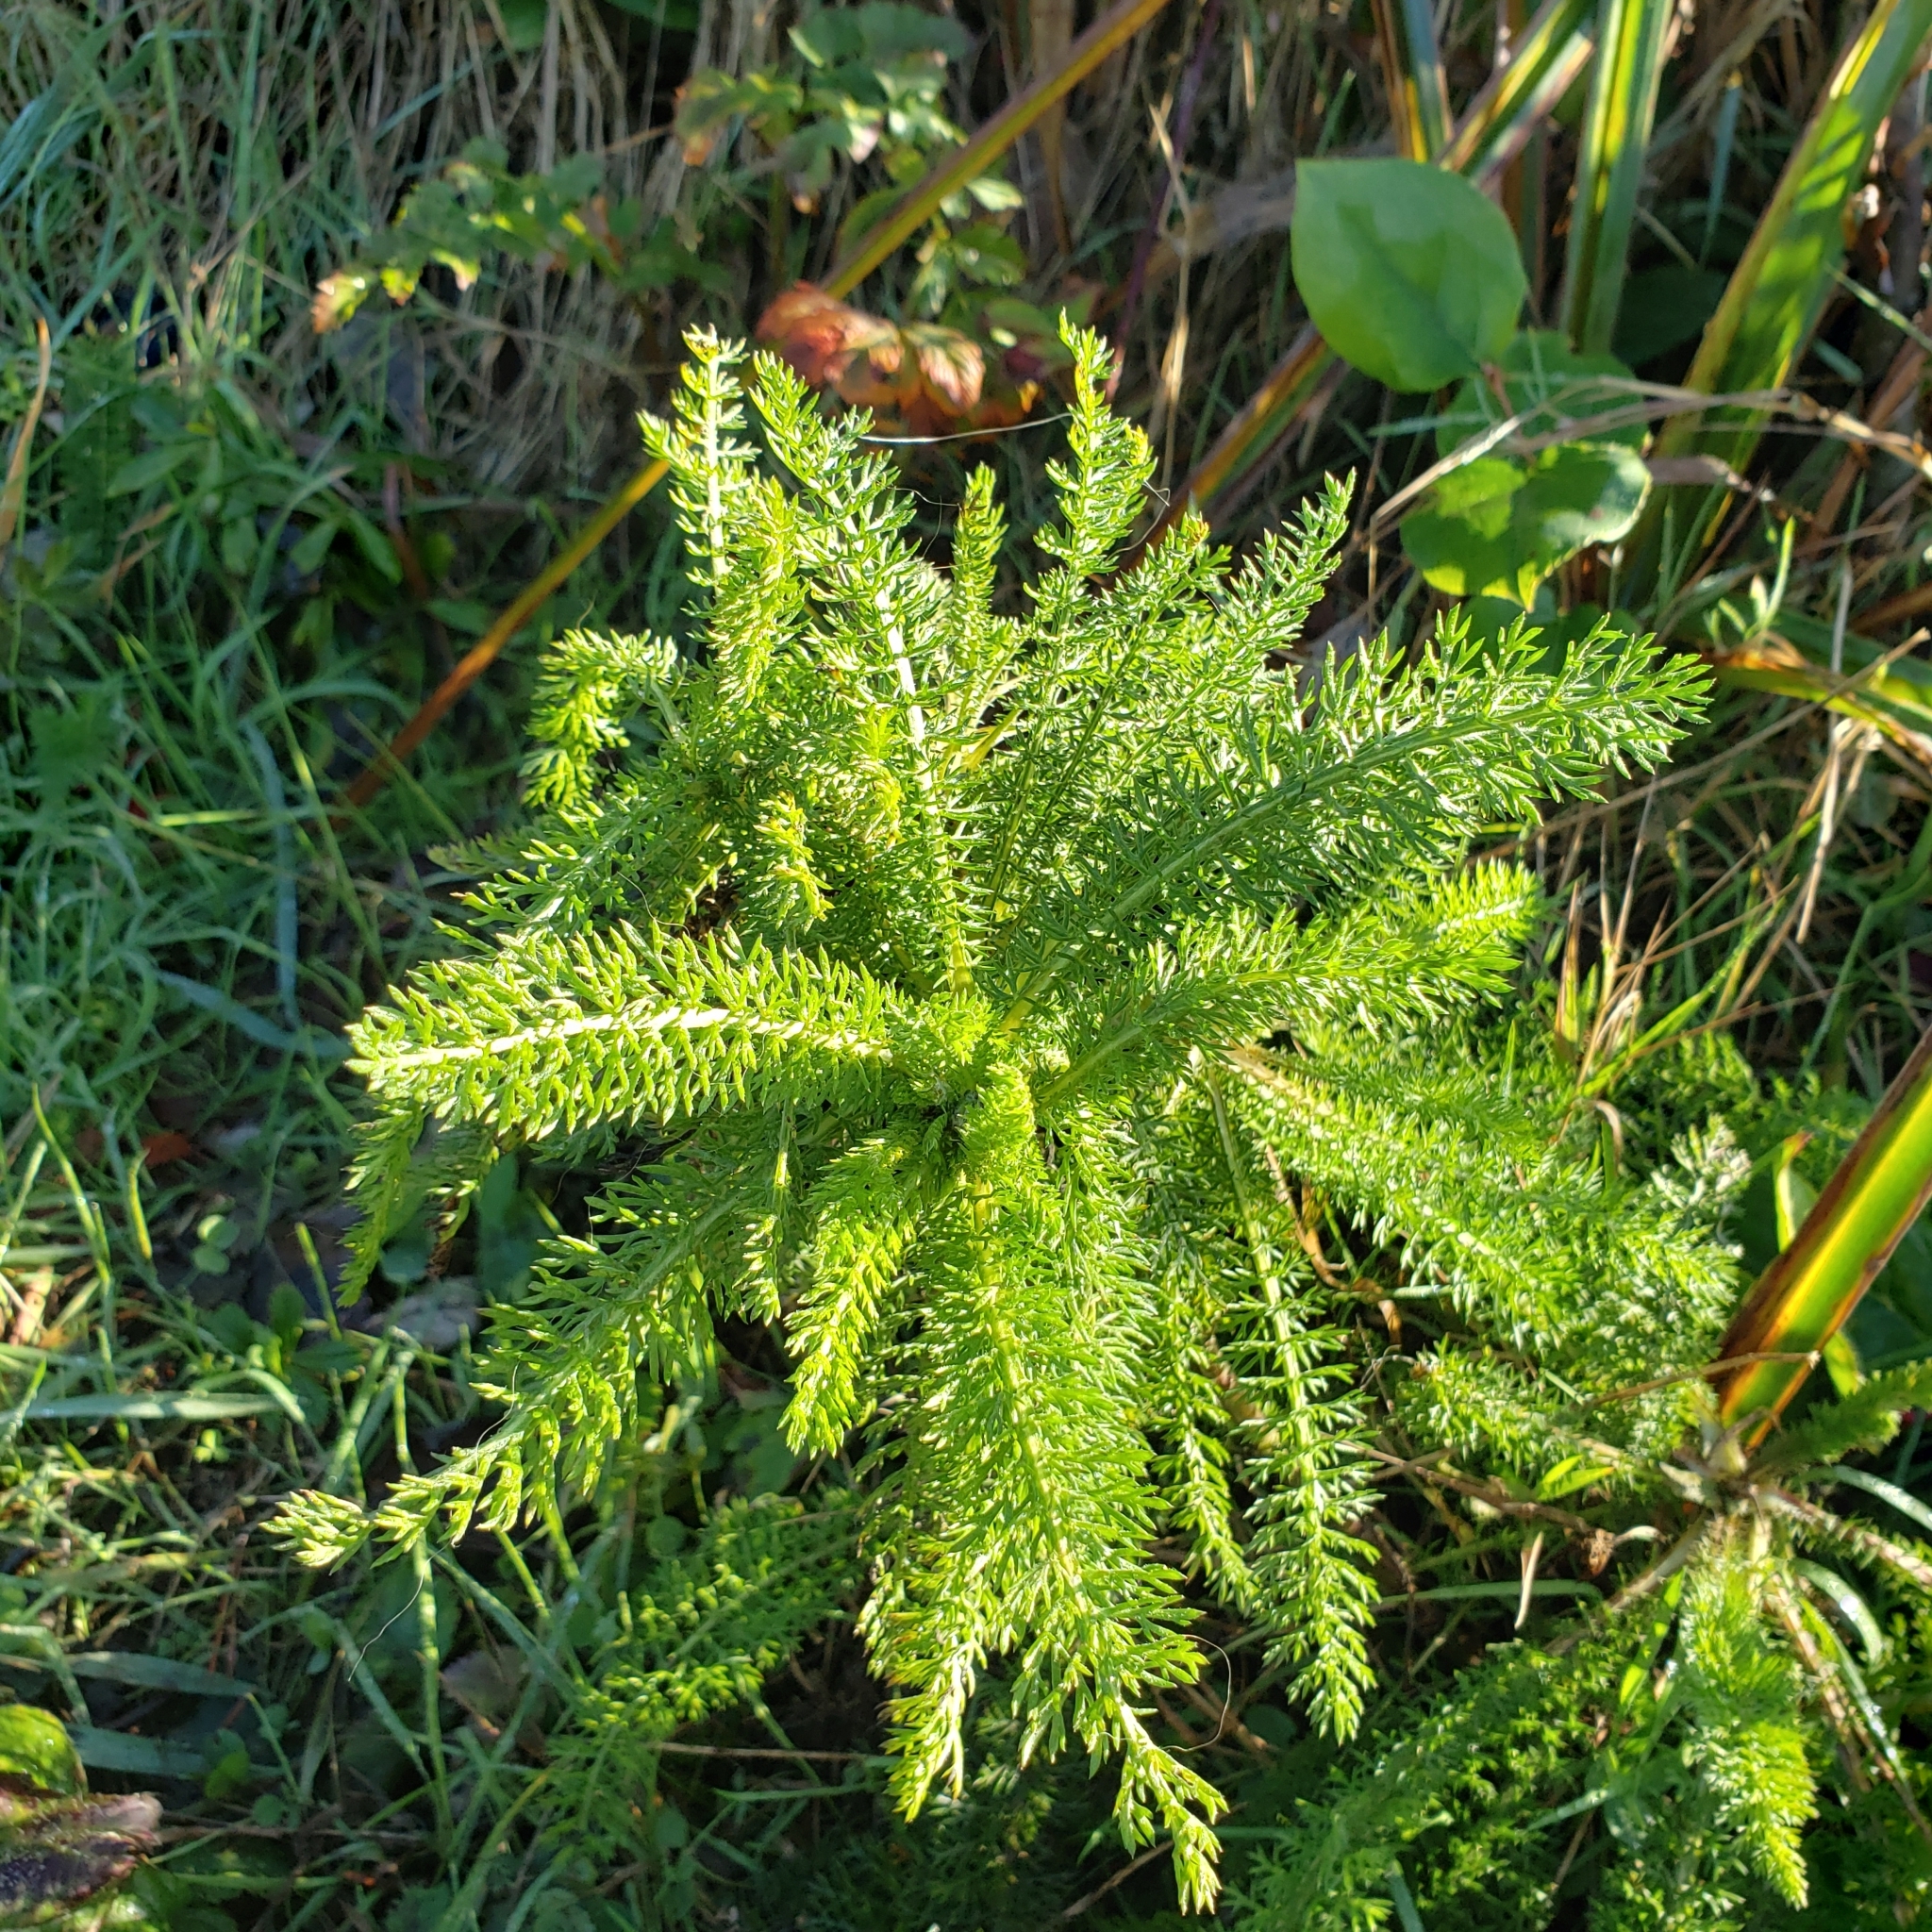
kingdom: Plantae
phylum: Tracheophyta
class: Magnoliopsida
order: Asterales
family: Asteraceae
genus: Achillea
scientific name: Achillea millefolium
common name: Yarrow
